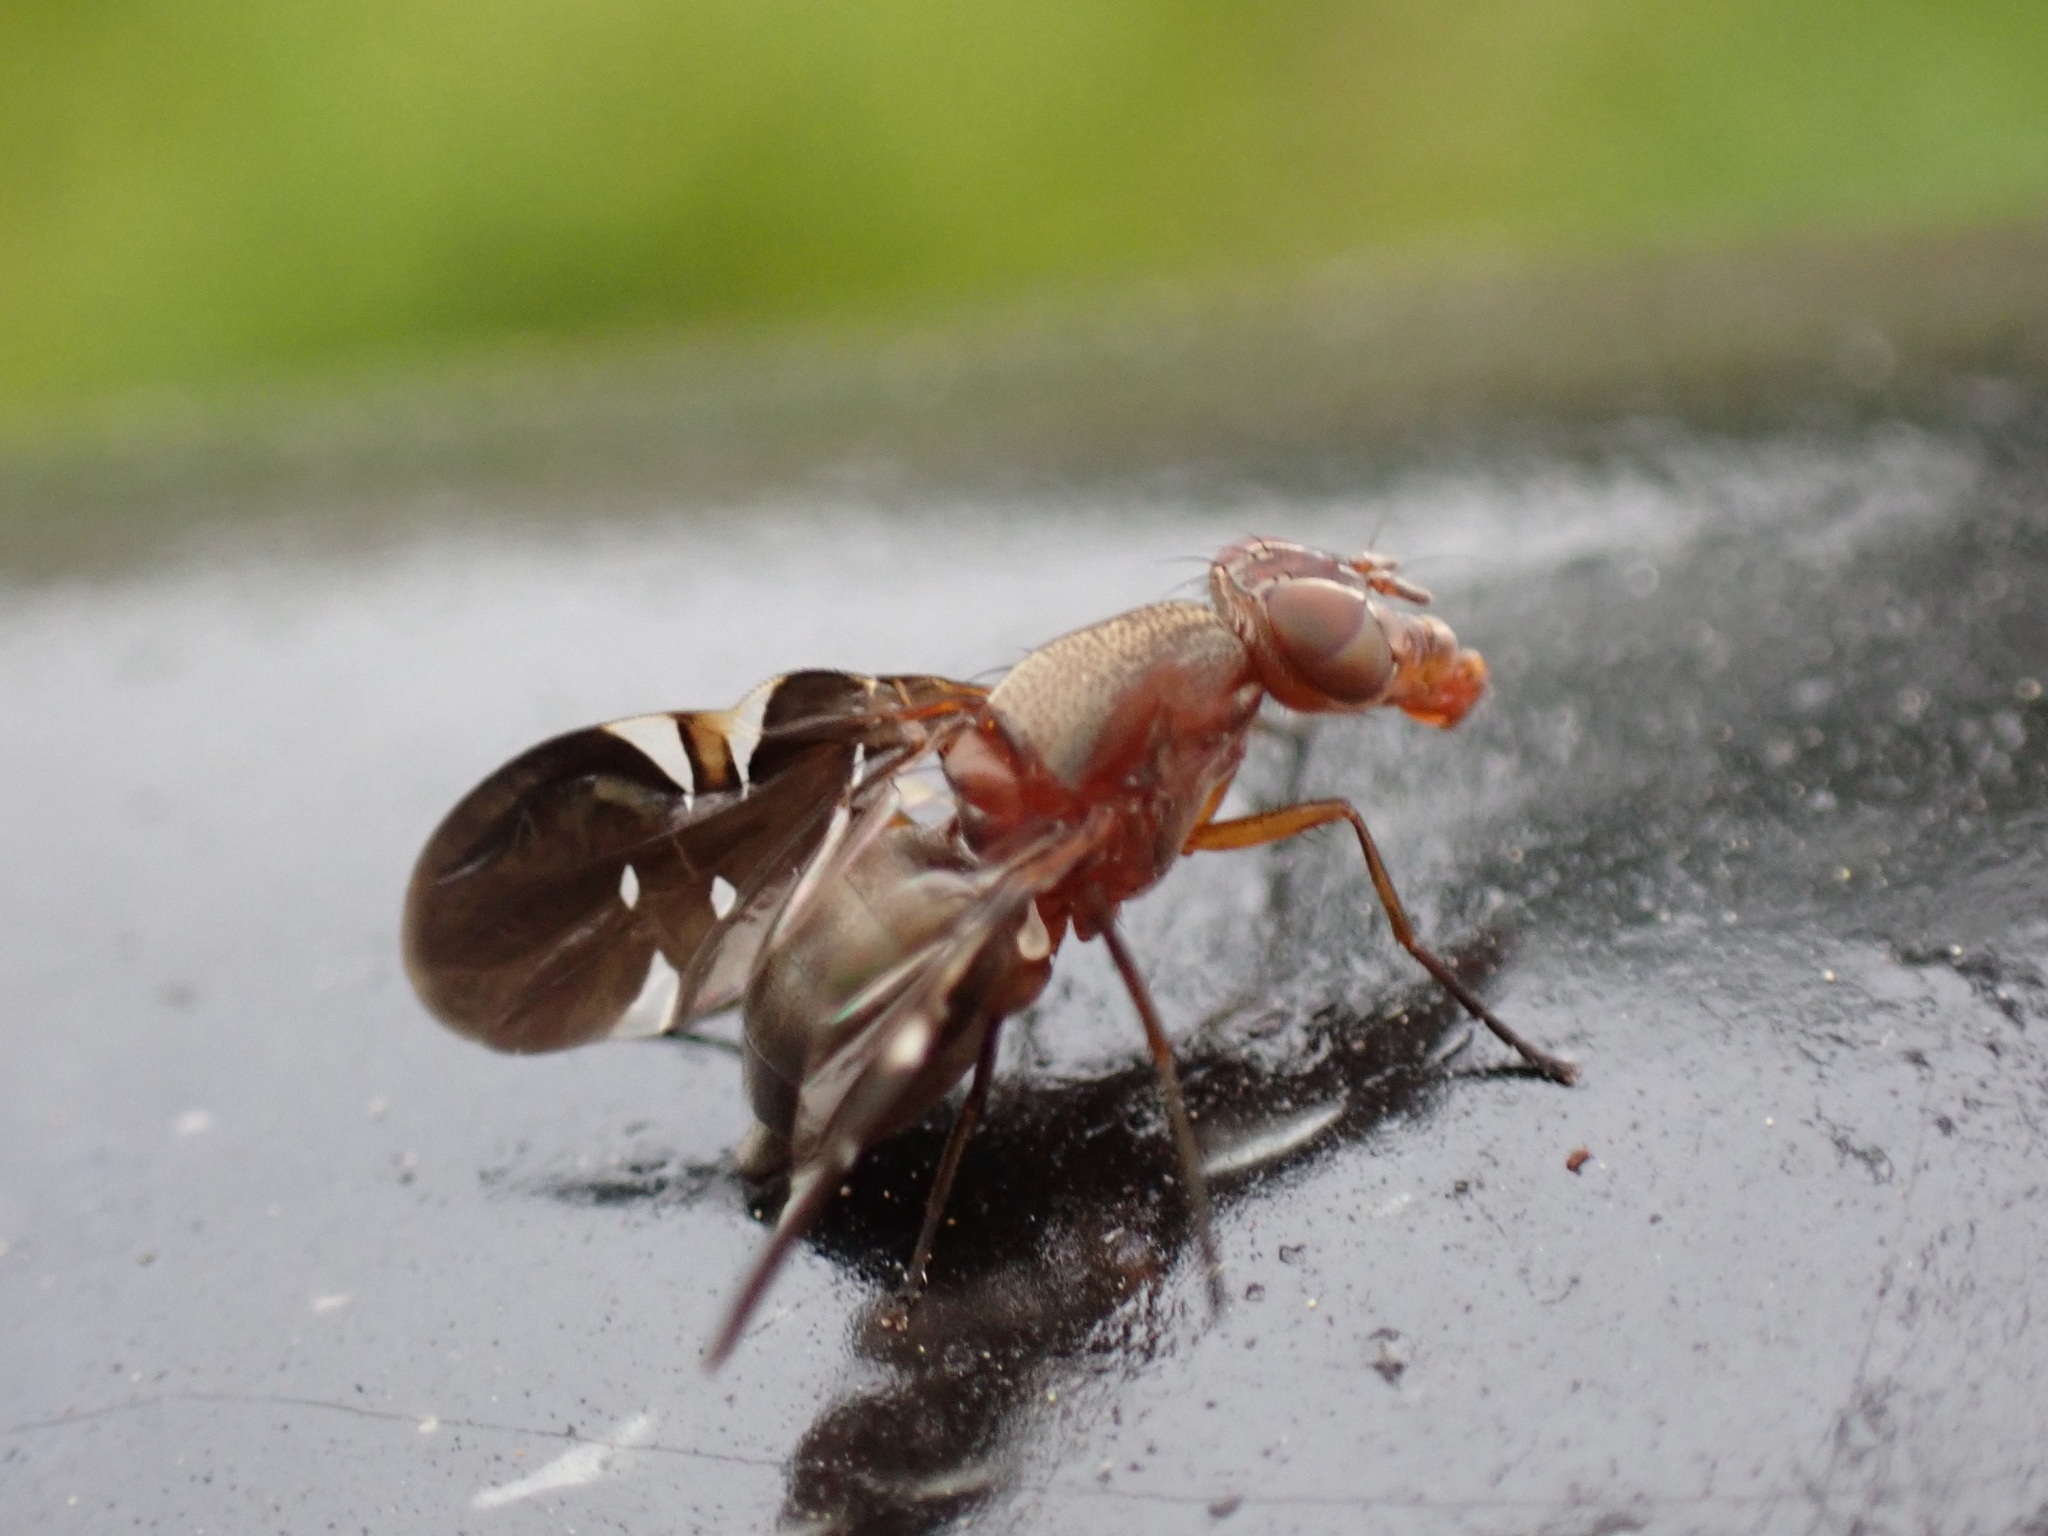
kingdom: Animalia
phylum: Arthropoda
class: Insecta
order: Diptera
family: Ulidiidae
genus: Delphinia
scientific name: Delphinia picta
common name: Common picture-winged fly
